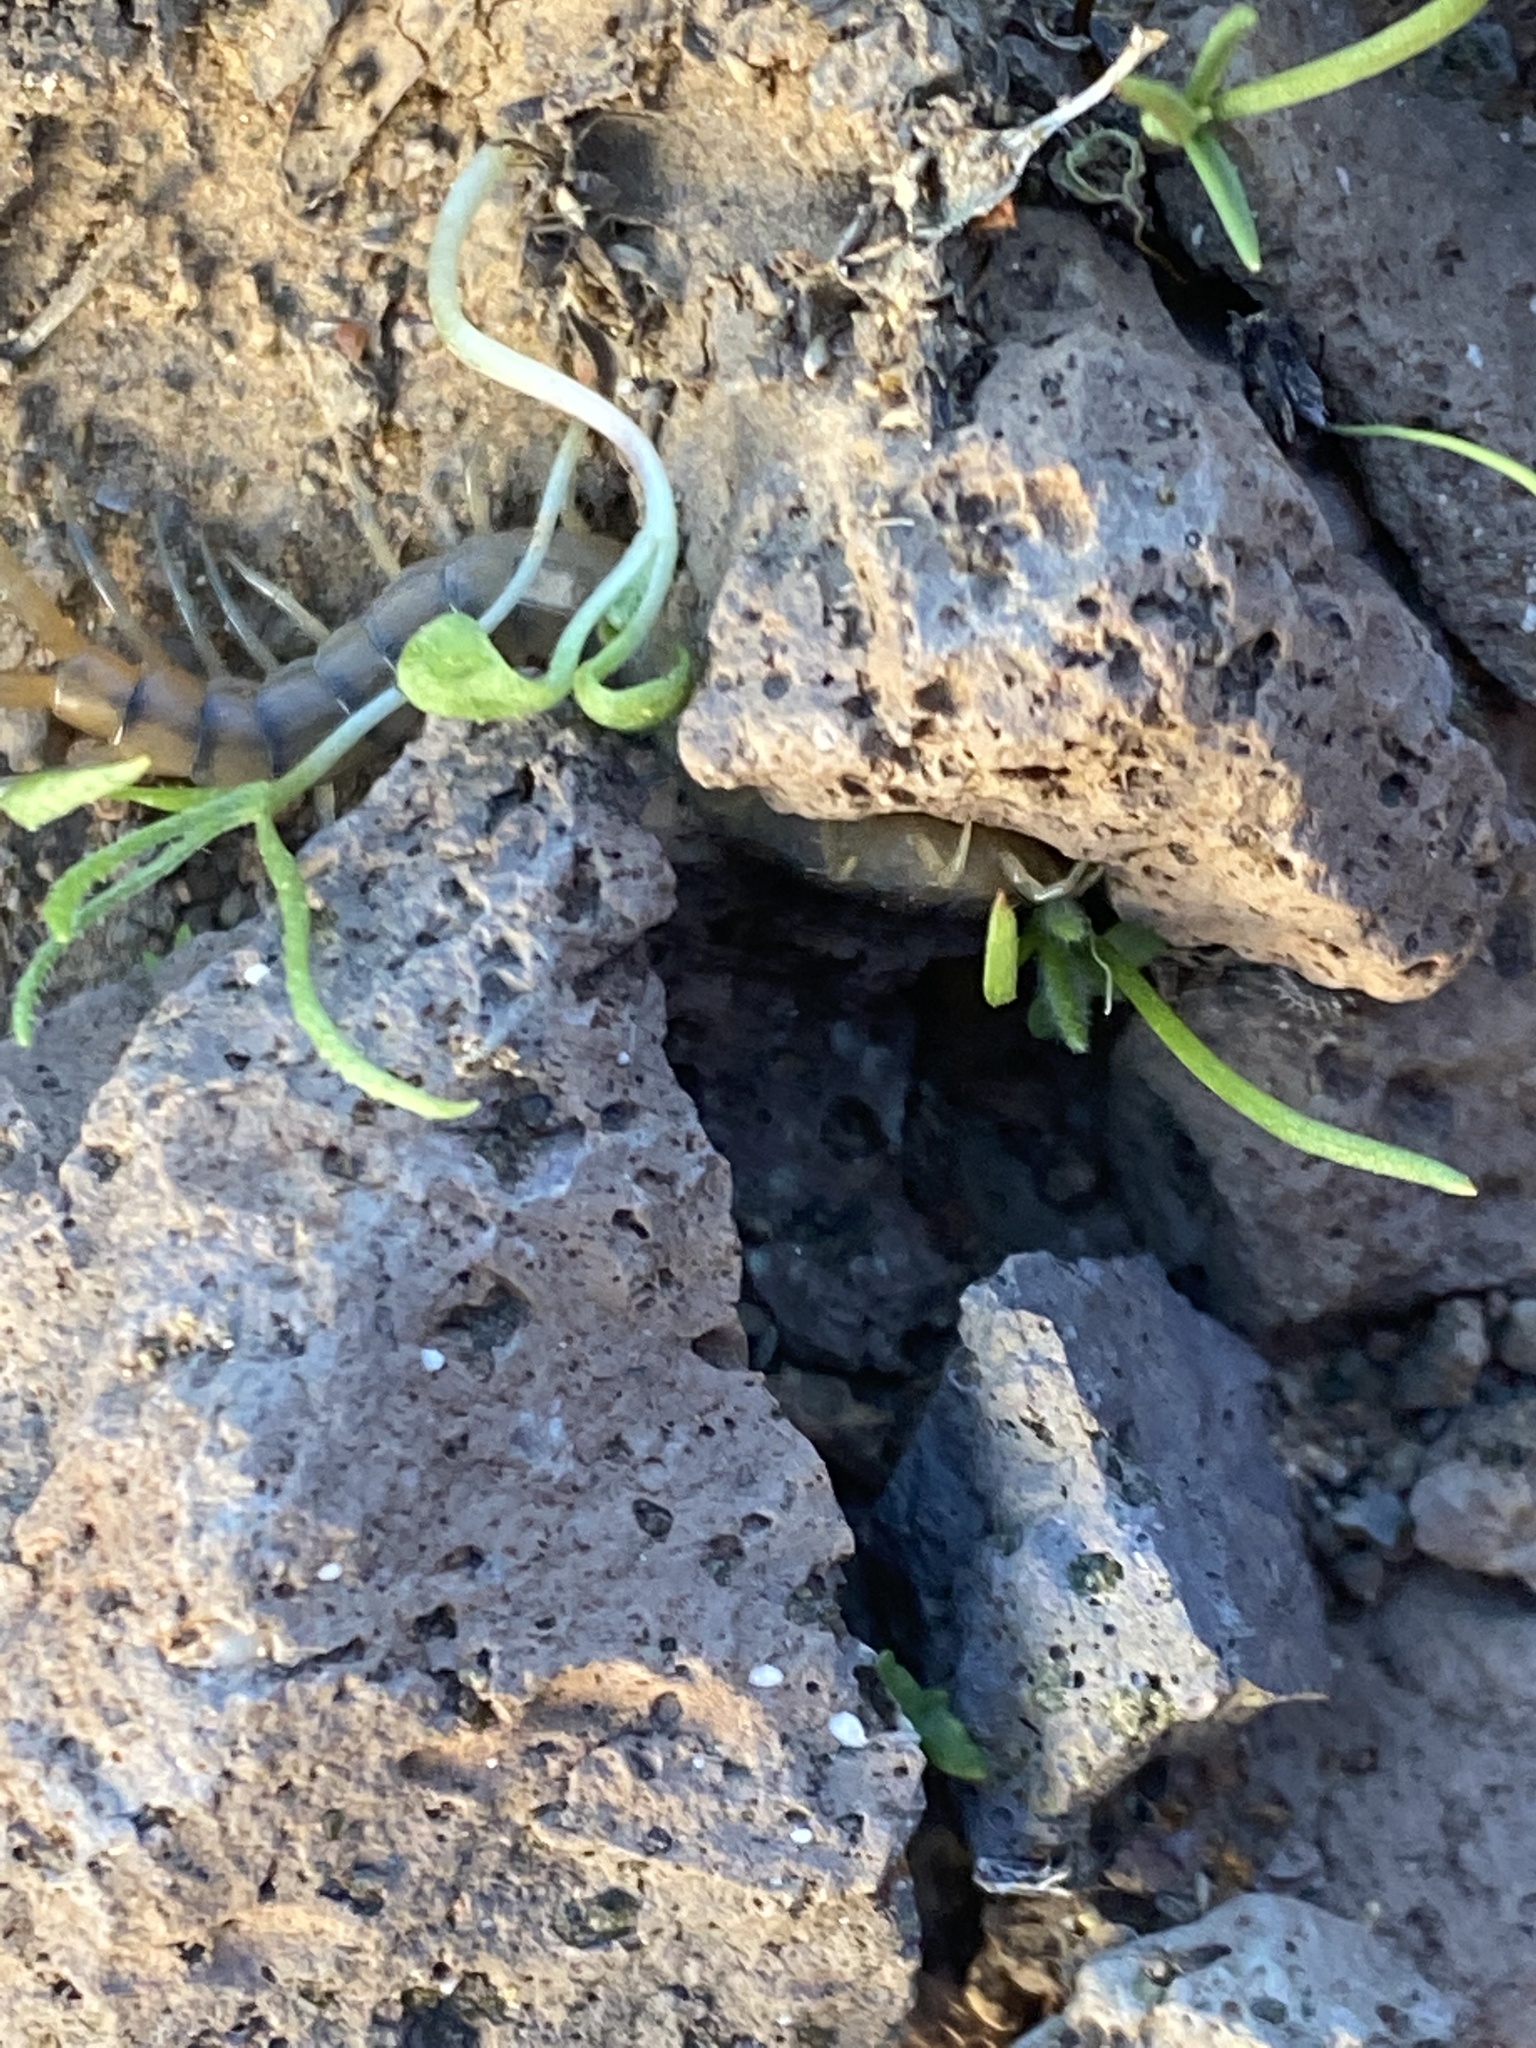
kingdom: Animalia
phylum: Arthropoda
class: Chilopoda
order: Scolopendromorpha
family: Scolopendridae
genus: Scolopendra
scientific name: Scolopendra polymorpha
